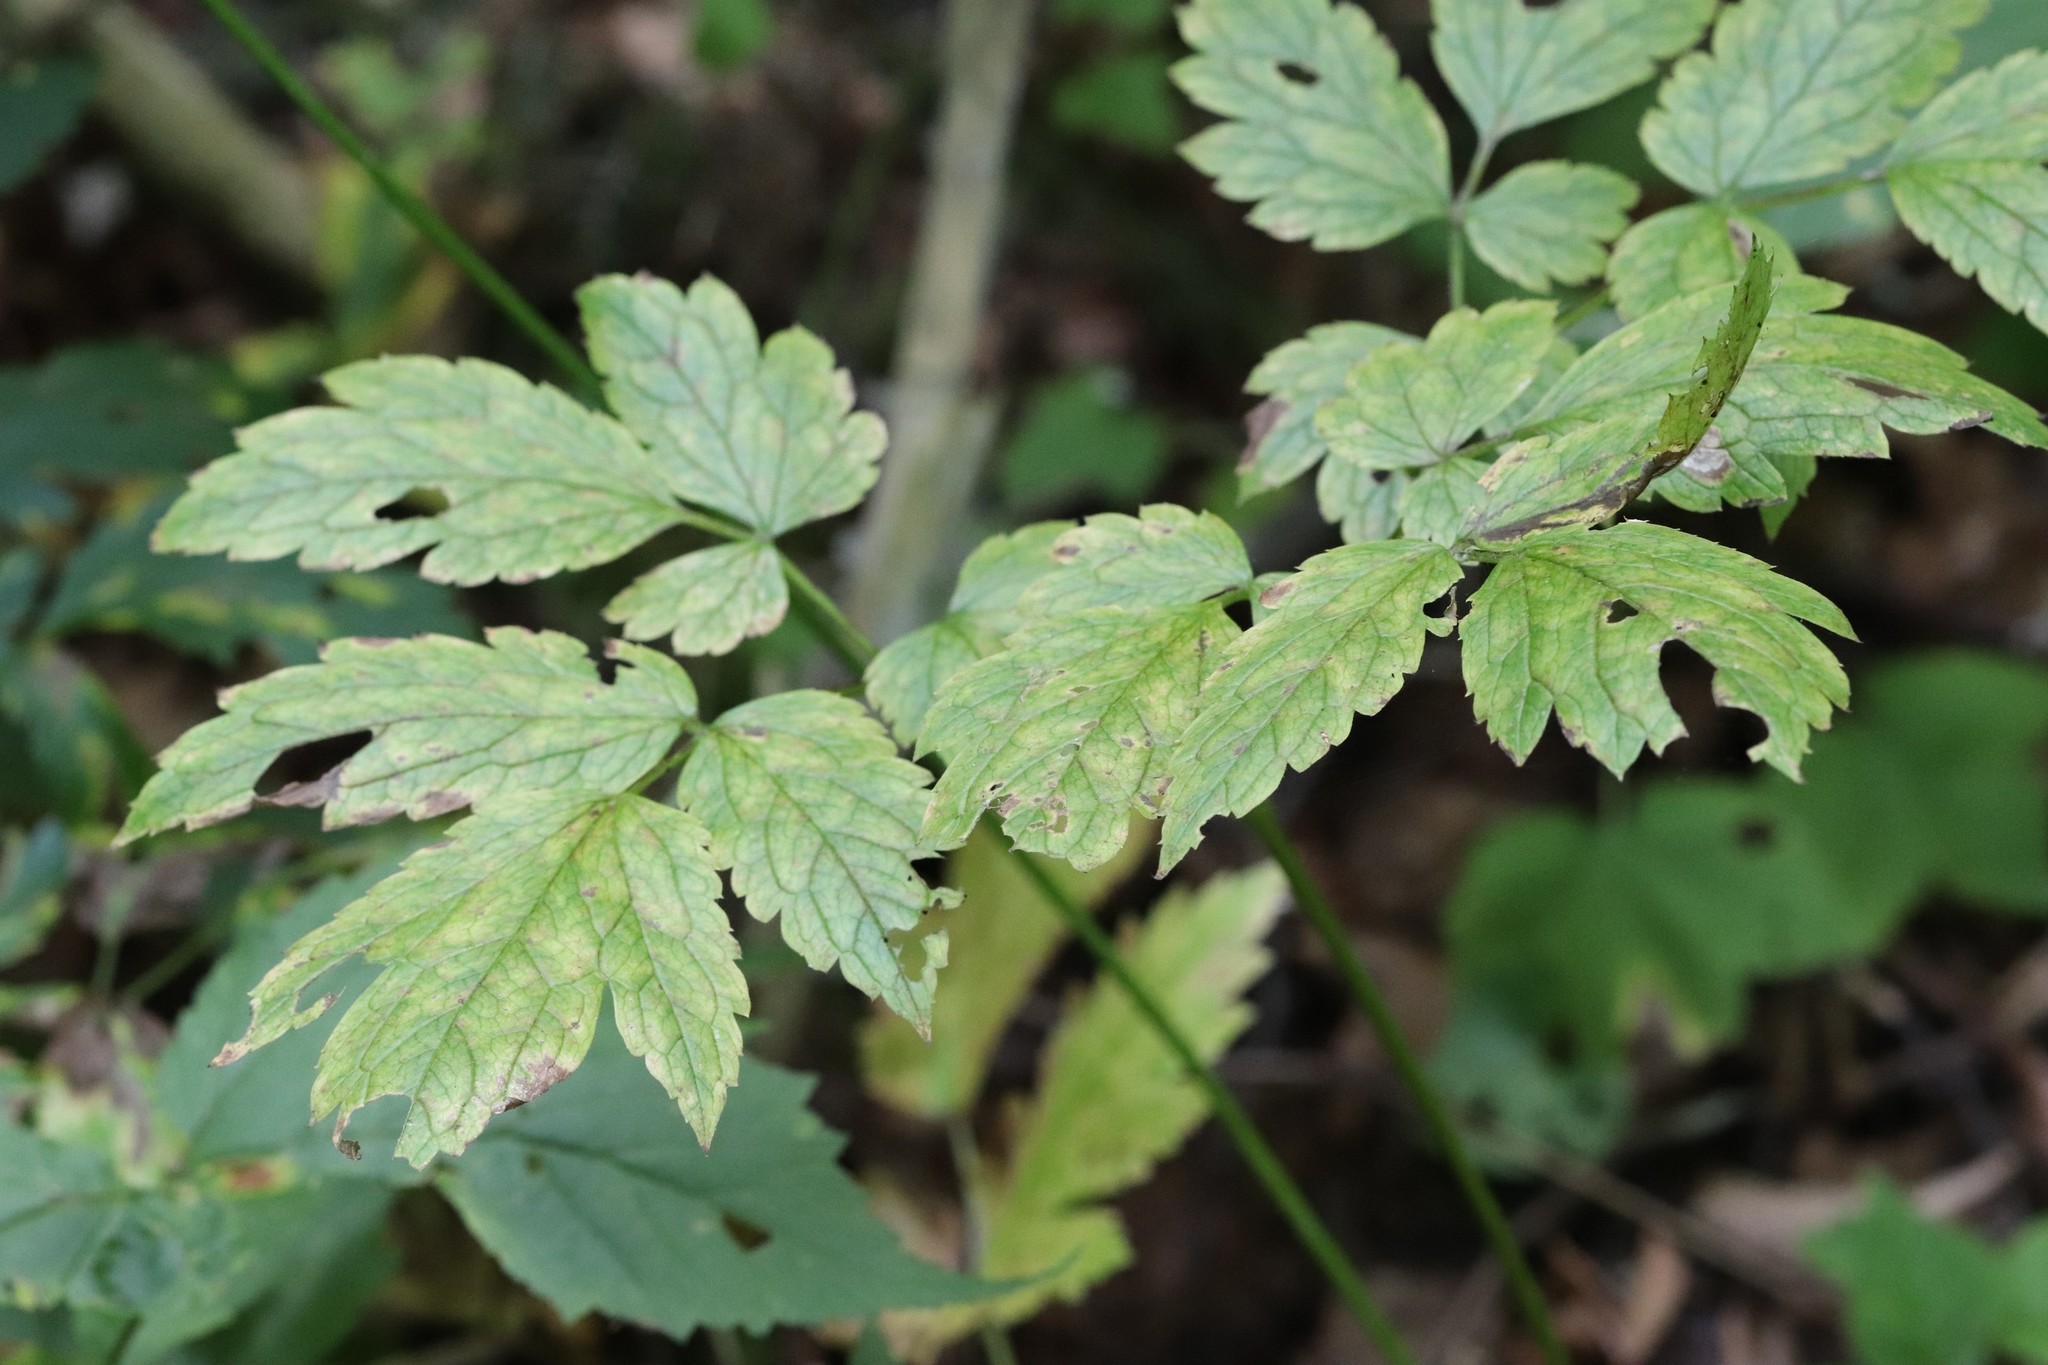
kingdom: Plantae
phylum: Tracheophyta
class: Magnoliopsida
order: Ranunculales
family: Ranunculaceae
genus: Actaea
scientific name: Actaea simplex
